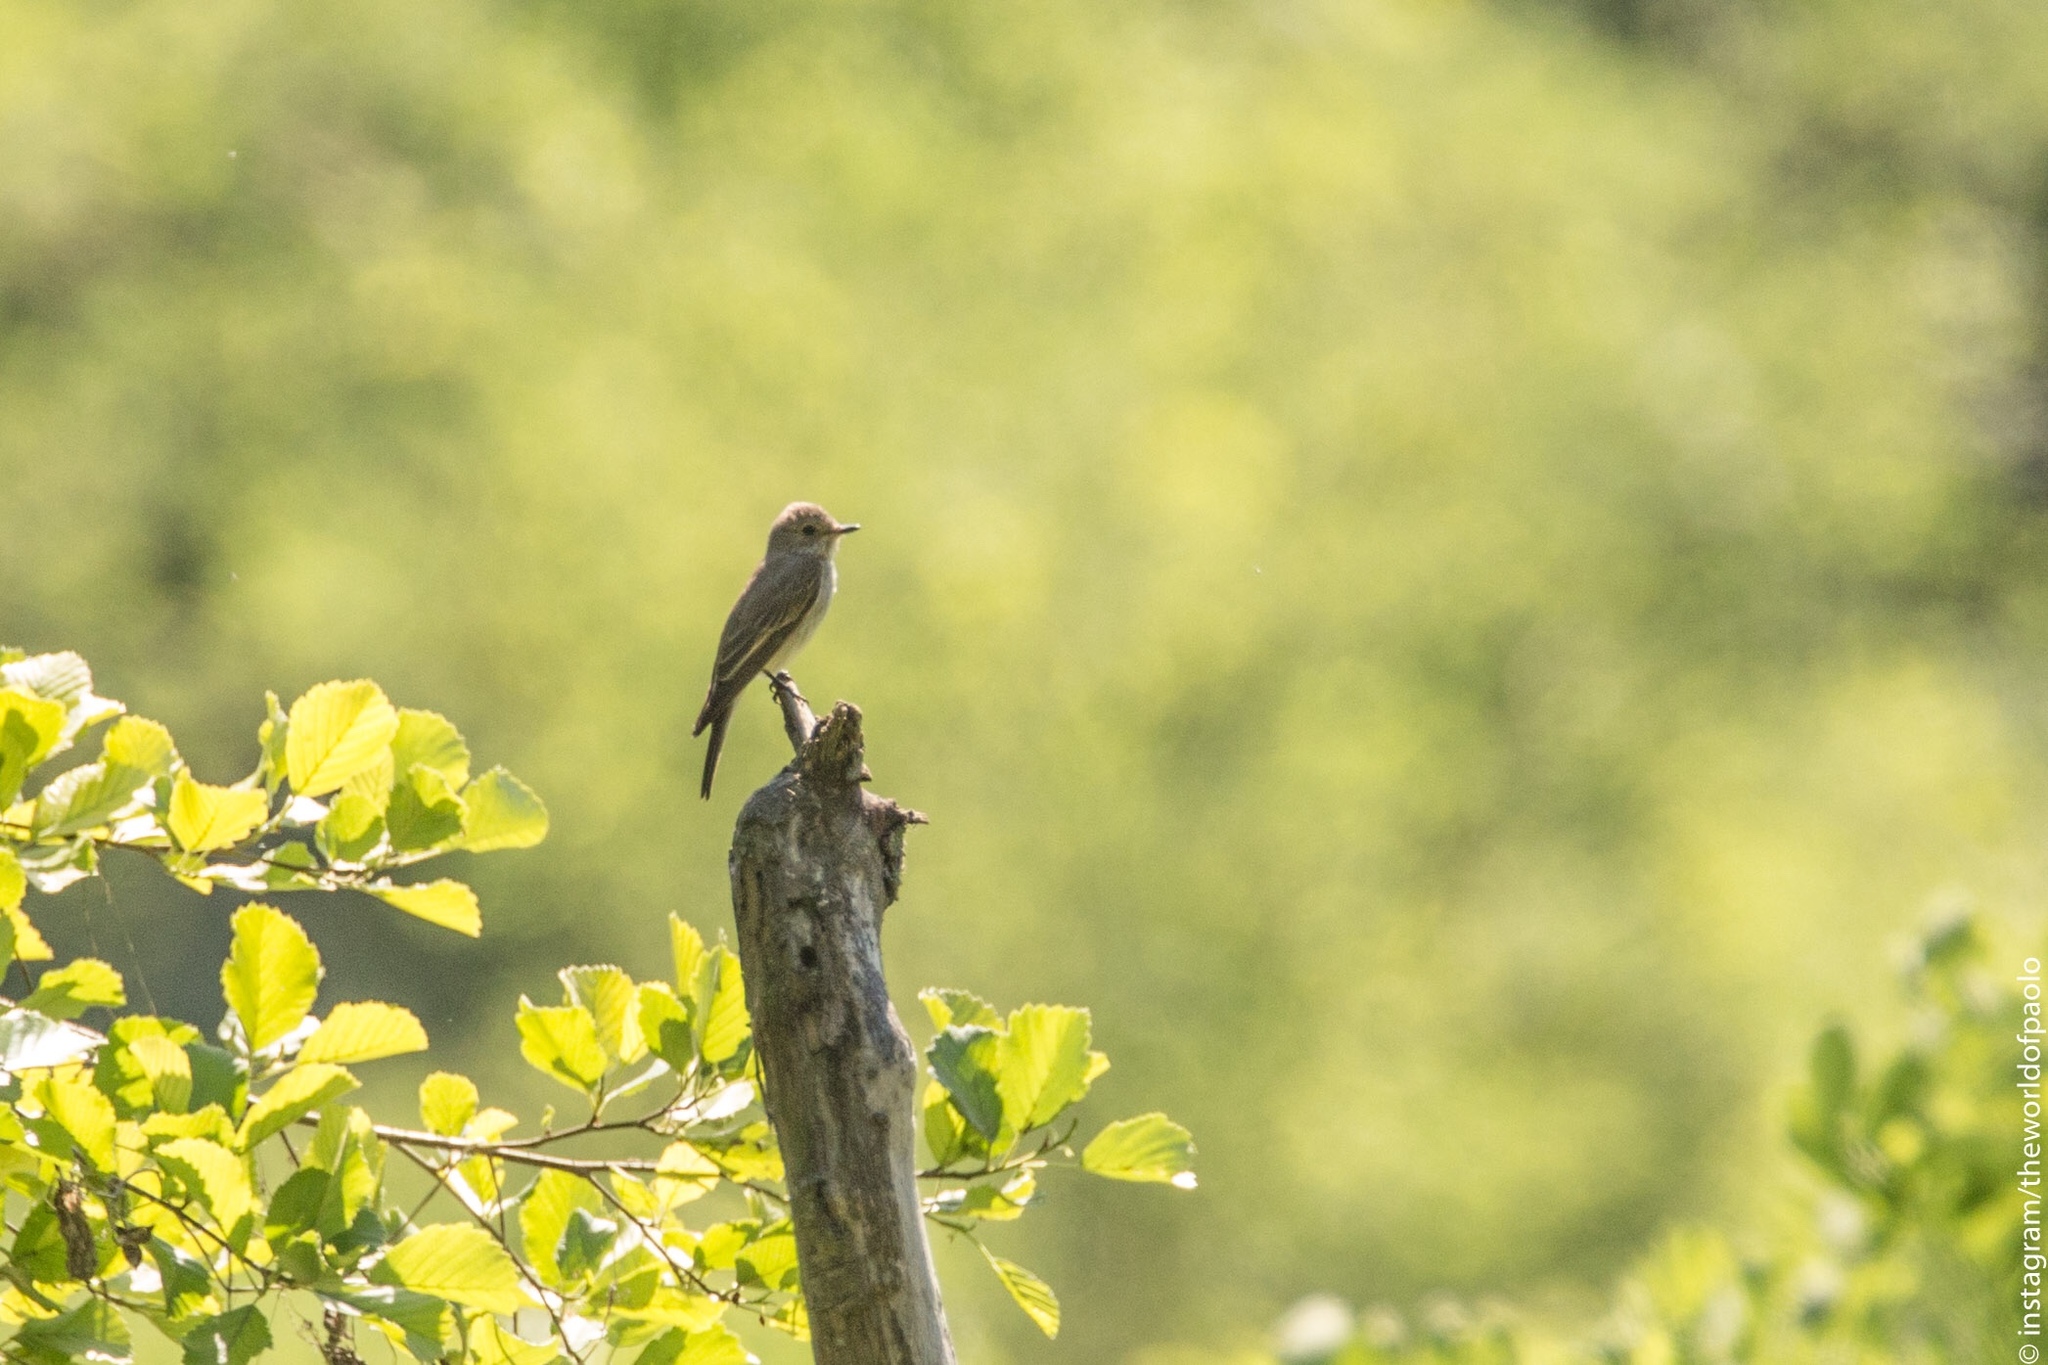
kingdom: Animalia
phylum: Chordata
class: Aves
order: Passeriformes
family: Muscicapidae
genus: Muscicapa
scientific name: Muscicapa striata
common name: Spotted flycatcher
